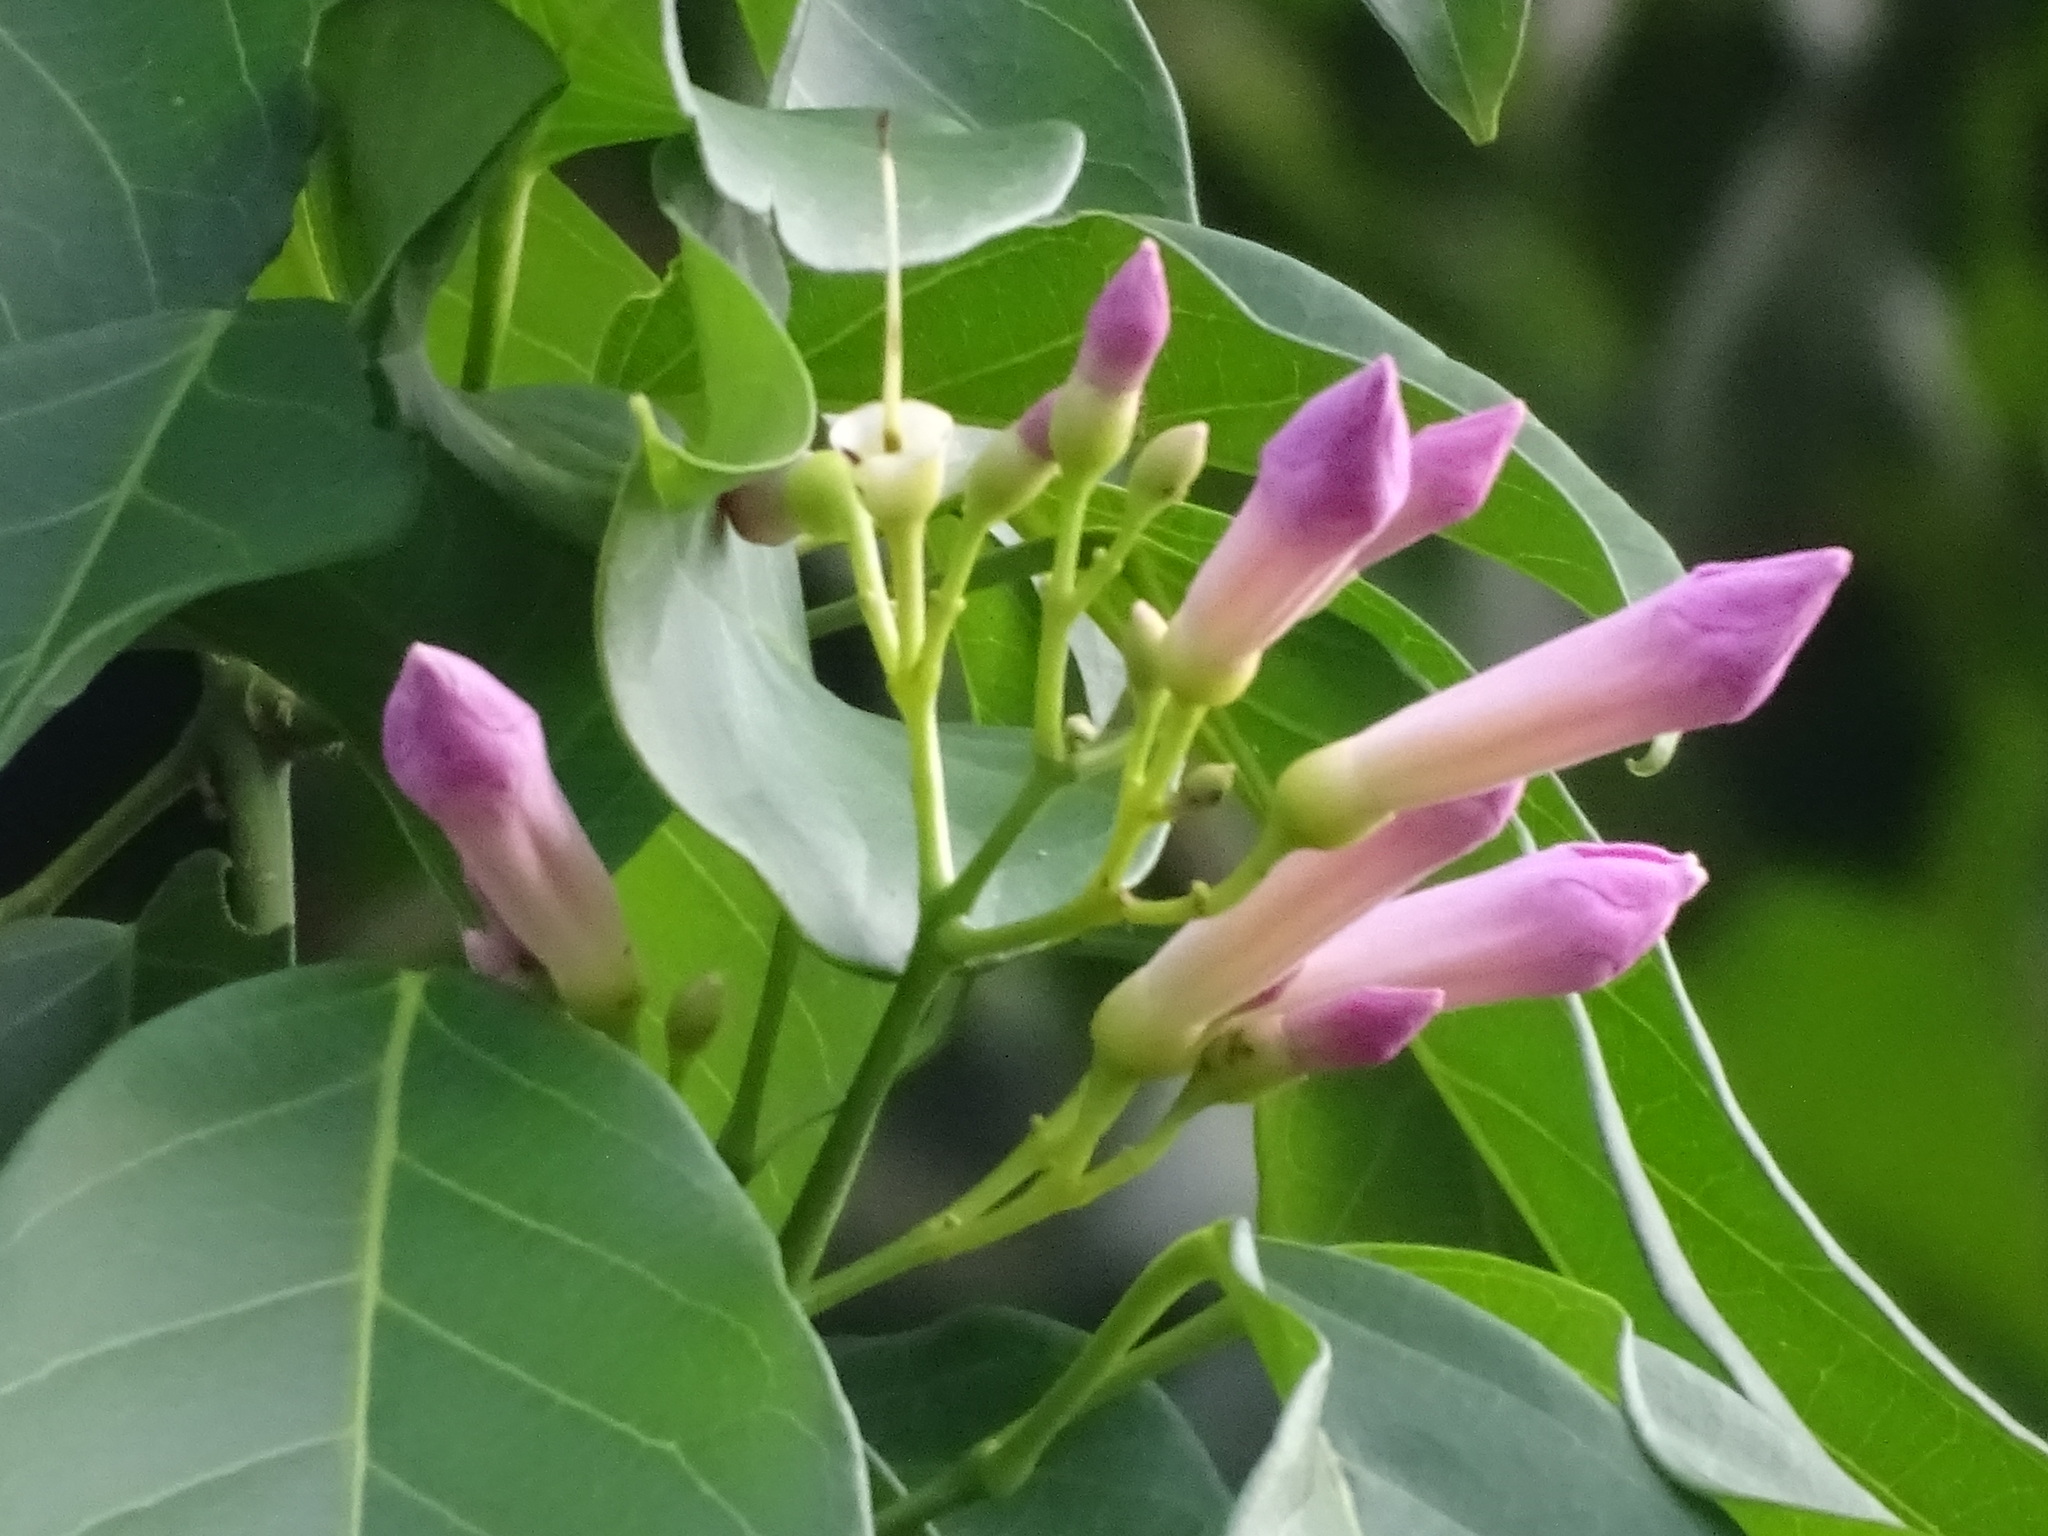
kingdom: Plantae
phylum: Tracheophyta
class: Magnoliopsida
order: Lamiales
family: Bignoniaceae
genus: Tanaecium
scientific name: Tanaecium pyramidatum
